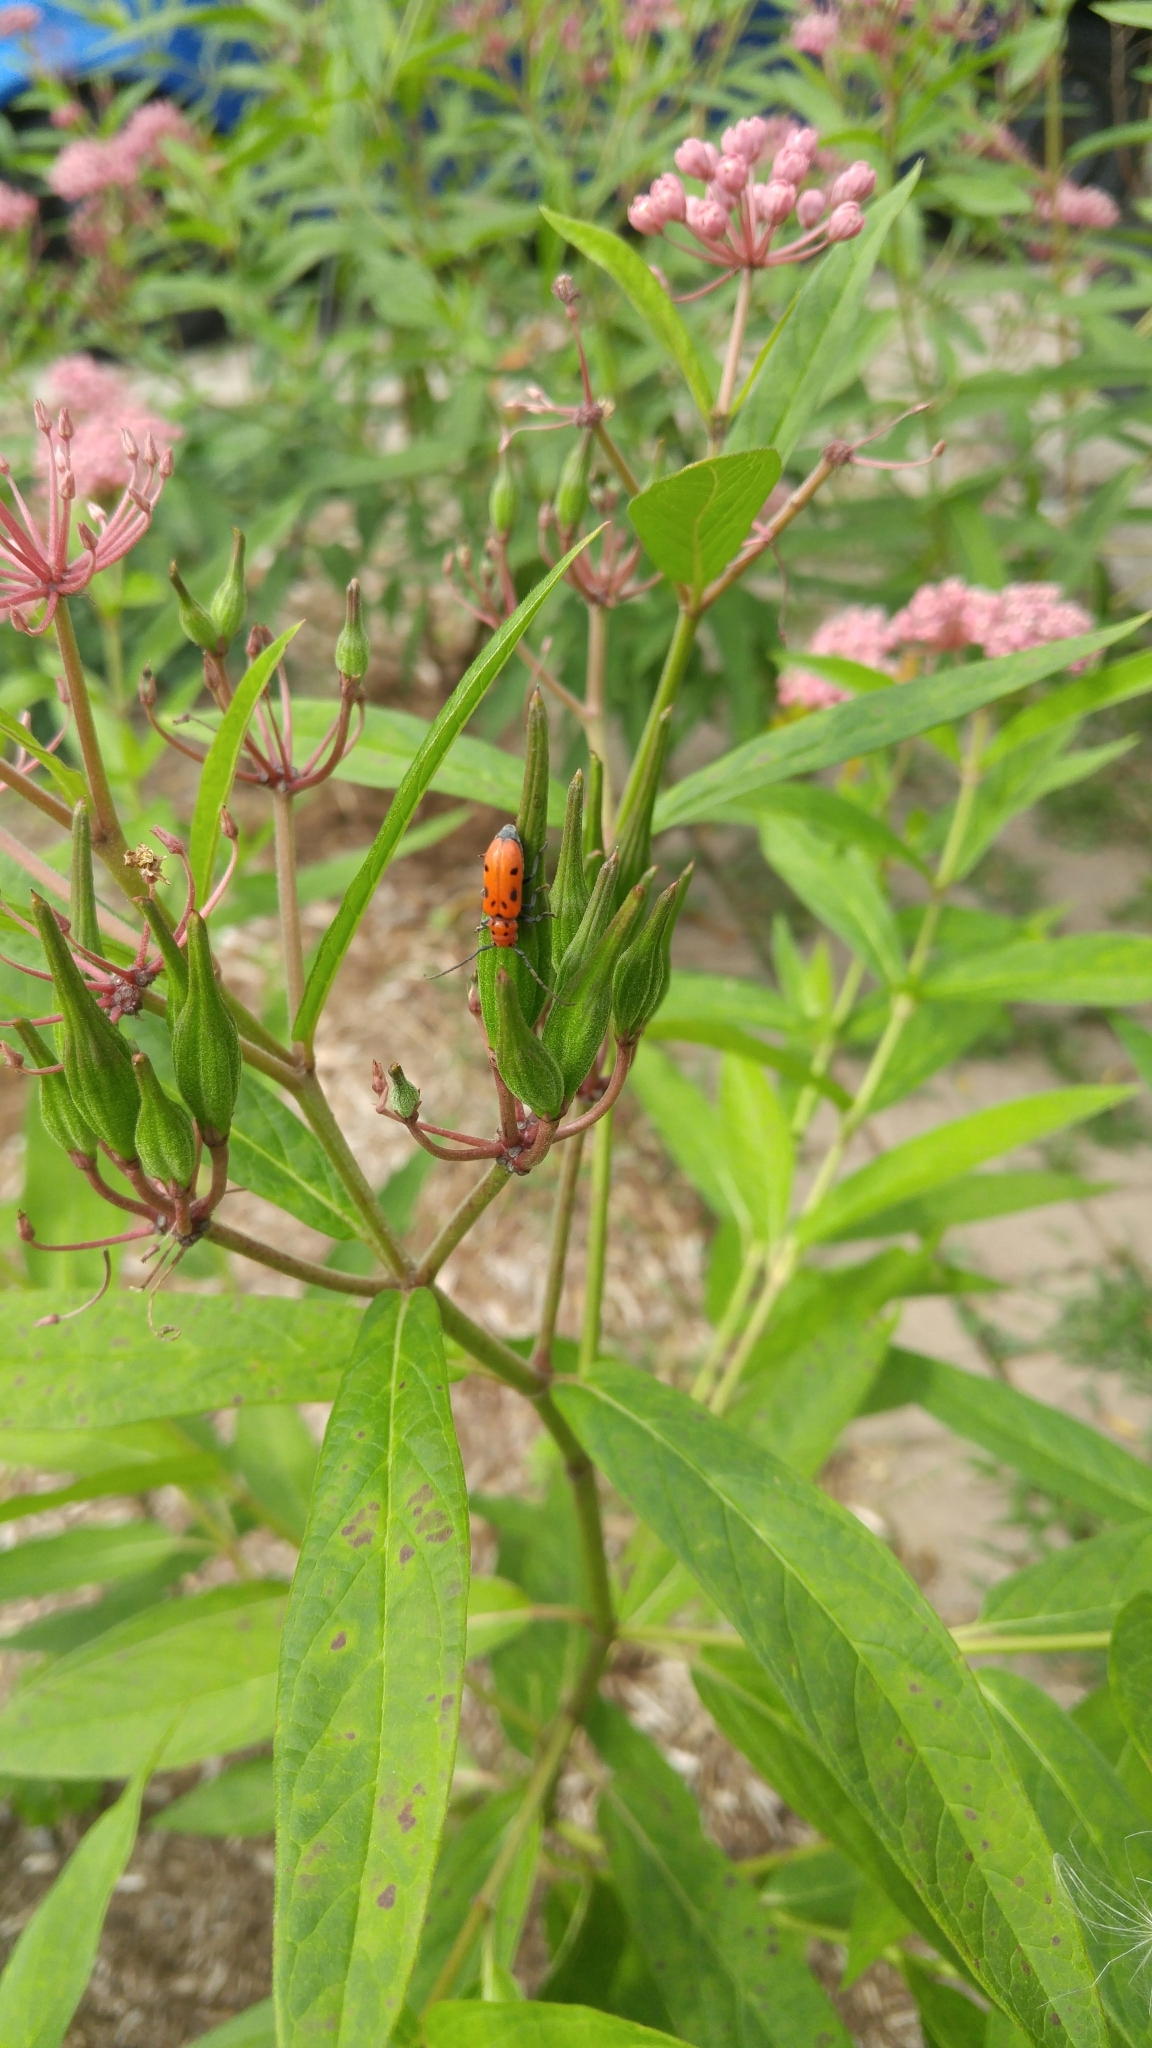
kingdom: Animalia
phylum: Arthropoda
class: Insecta
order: Coleoptera
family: Cerambycidae
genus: Tetraopes
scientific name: Tetraopes tetrophthalmus
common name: Red milkweed beetle
